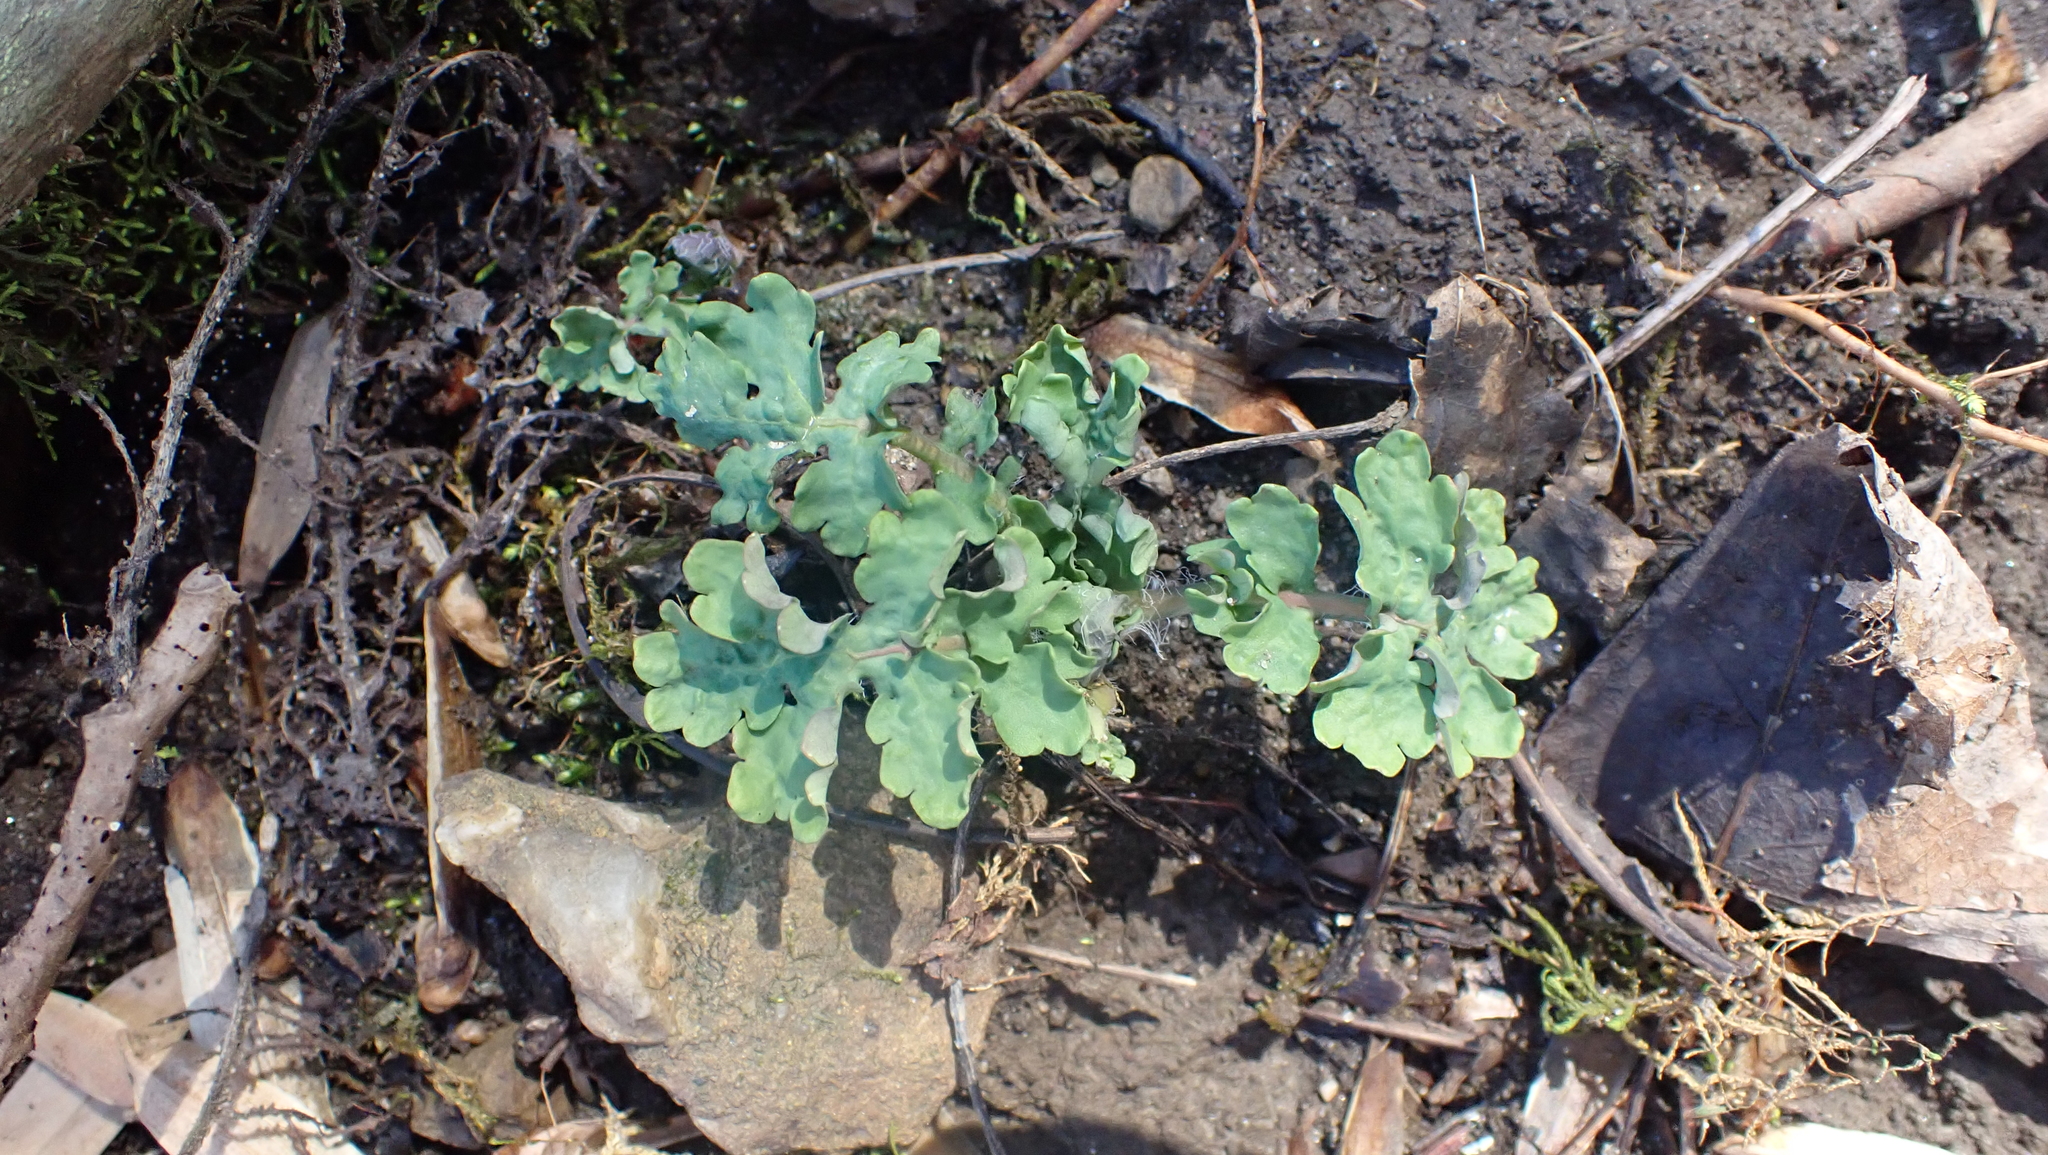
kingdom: Plantae
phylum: Tracheophyta
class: Magnoliopsida
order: Ranunculales
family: Papaveraceae
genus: Stylophorum
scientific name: Stylophorum diphyllum
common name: Celandine poppy
